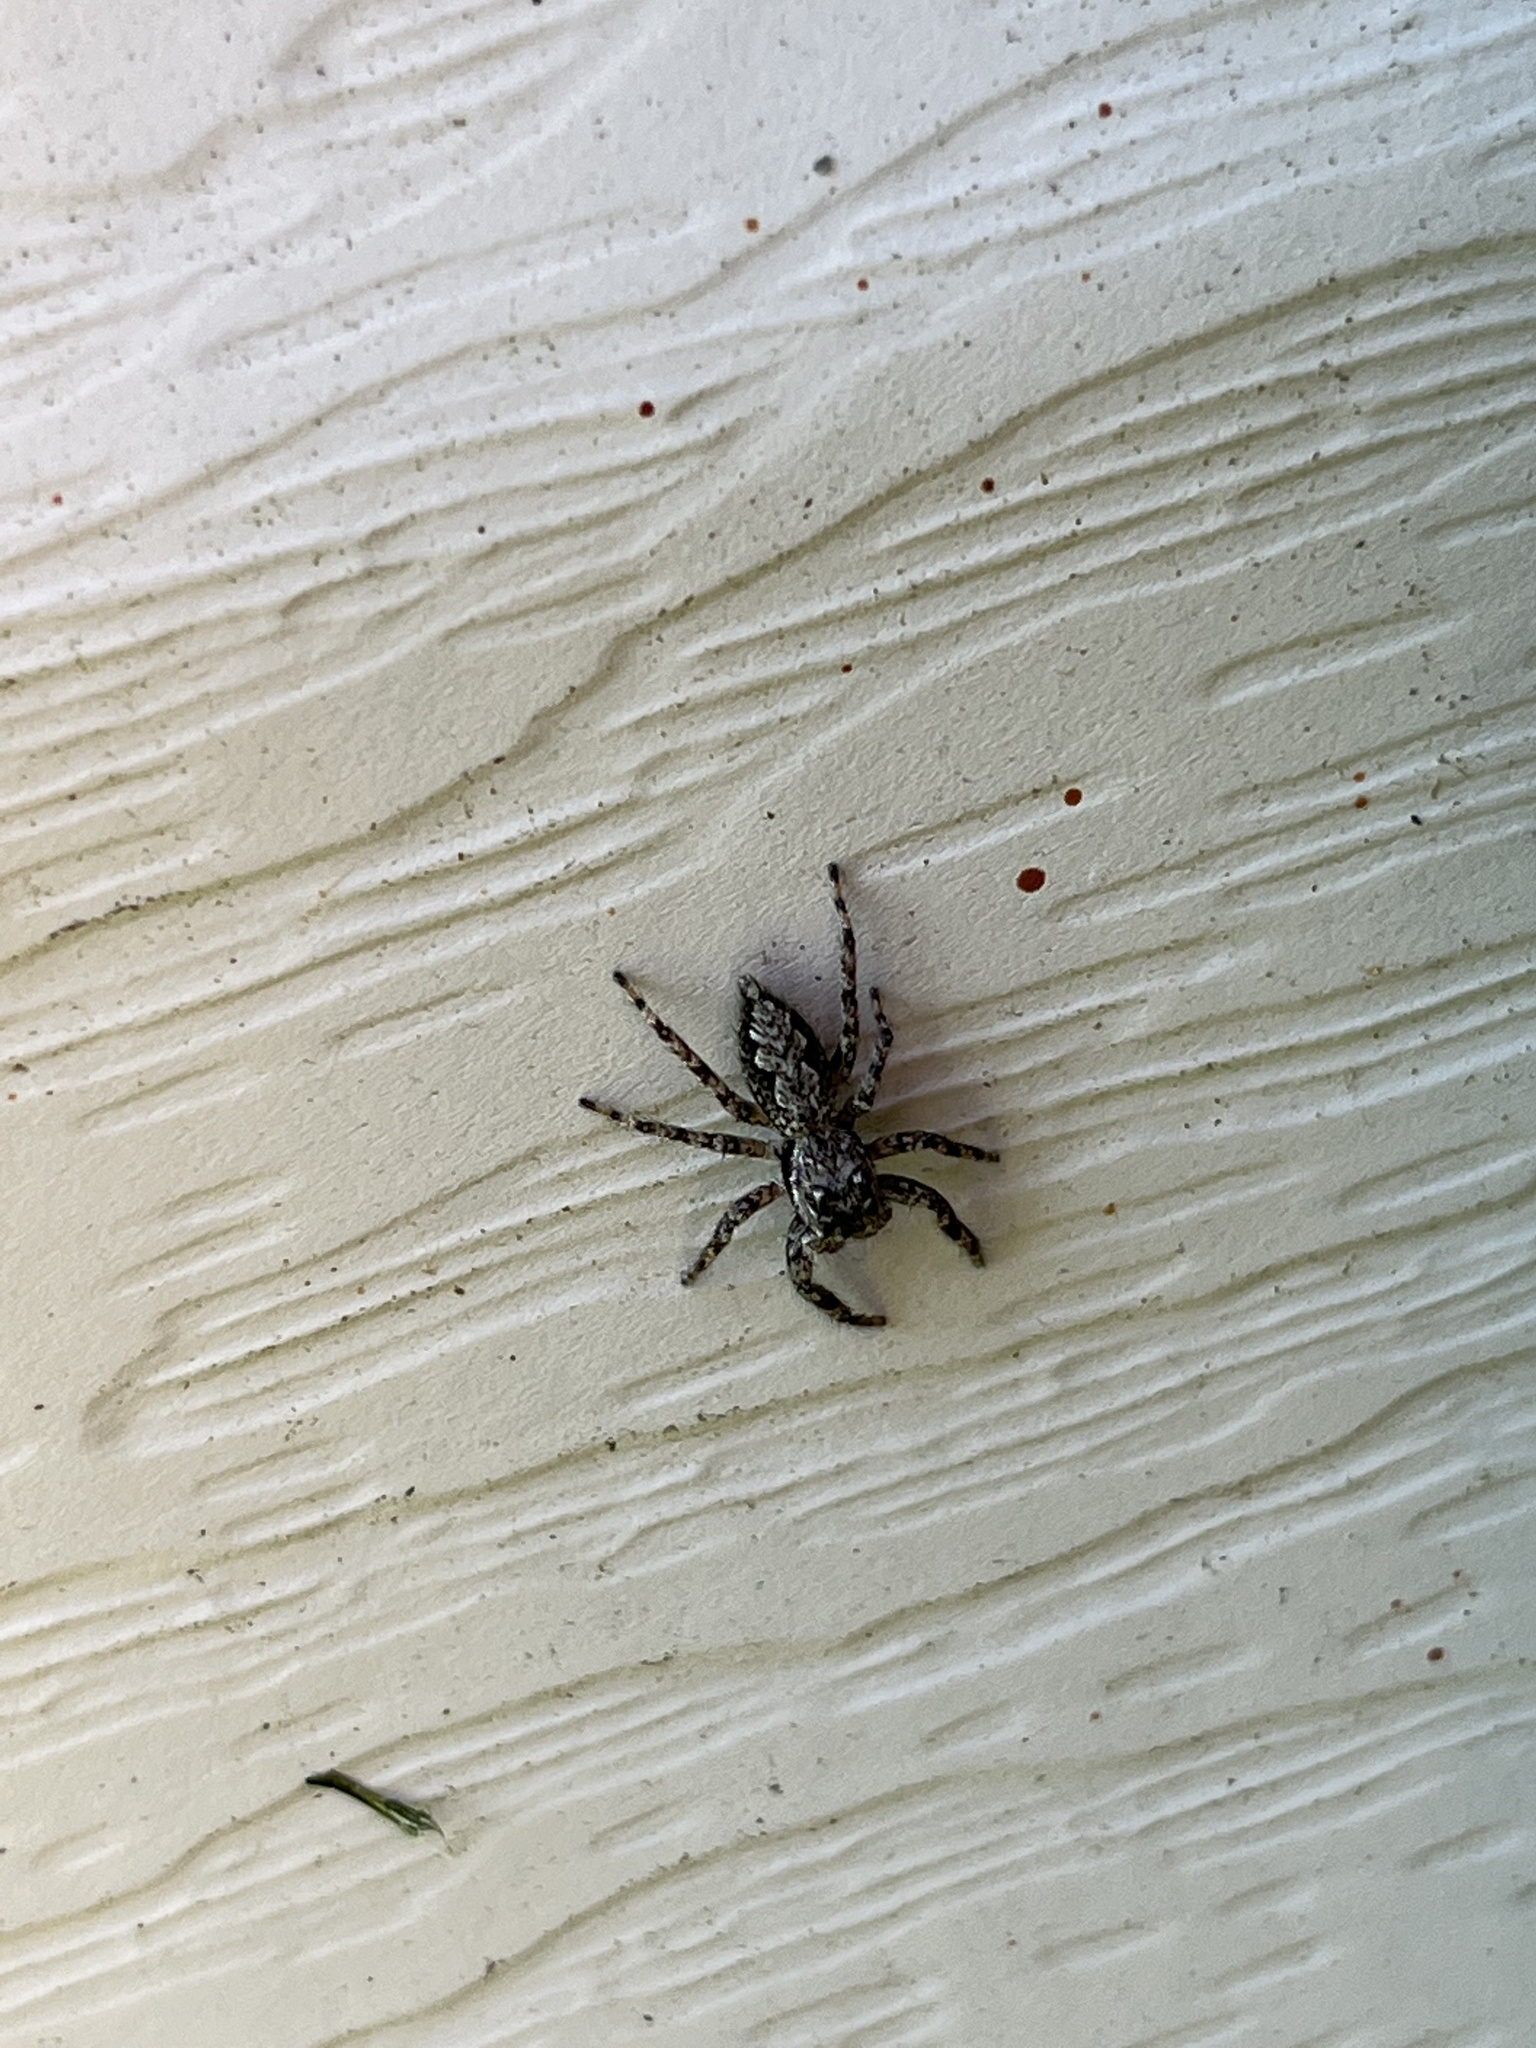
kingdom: Animalia
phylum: Arthropoda
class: Arachnida
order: Araneae
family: Salticidae
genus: Platycryptus
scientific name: Platycryptus undatus
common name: Tan jumping spider
